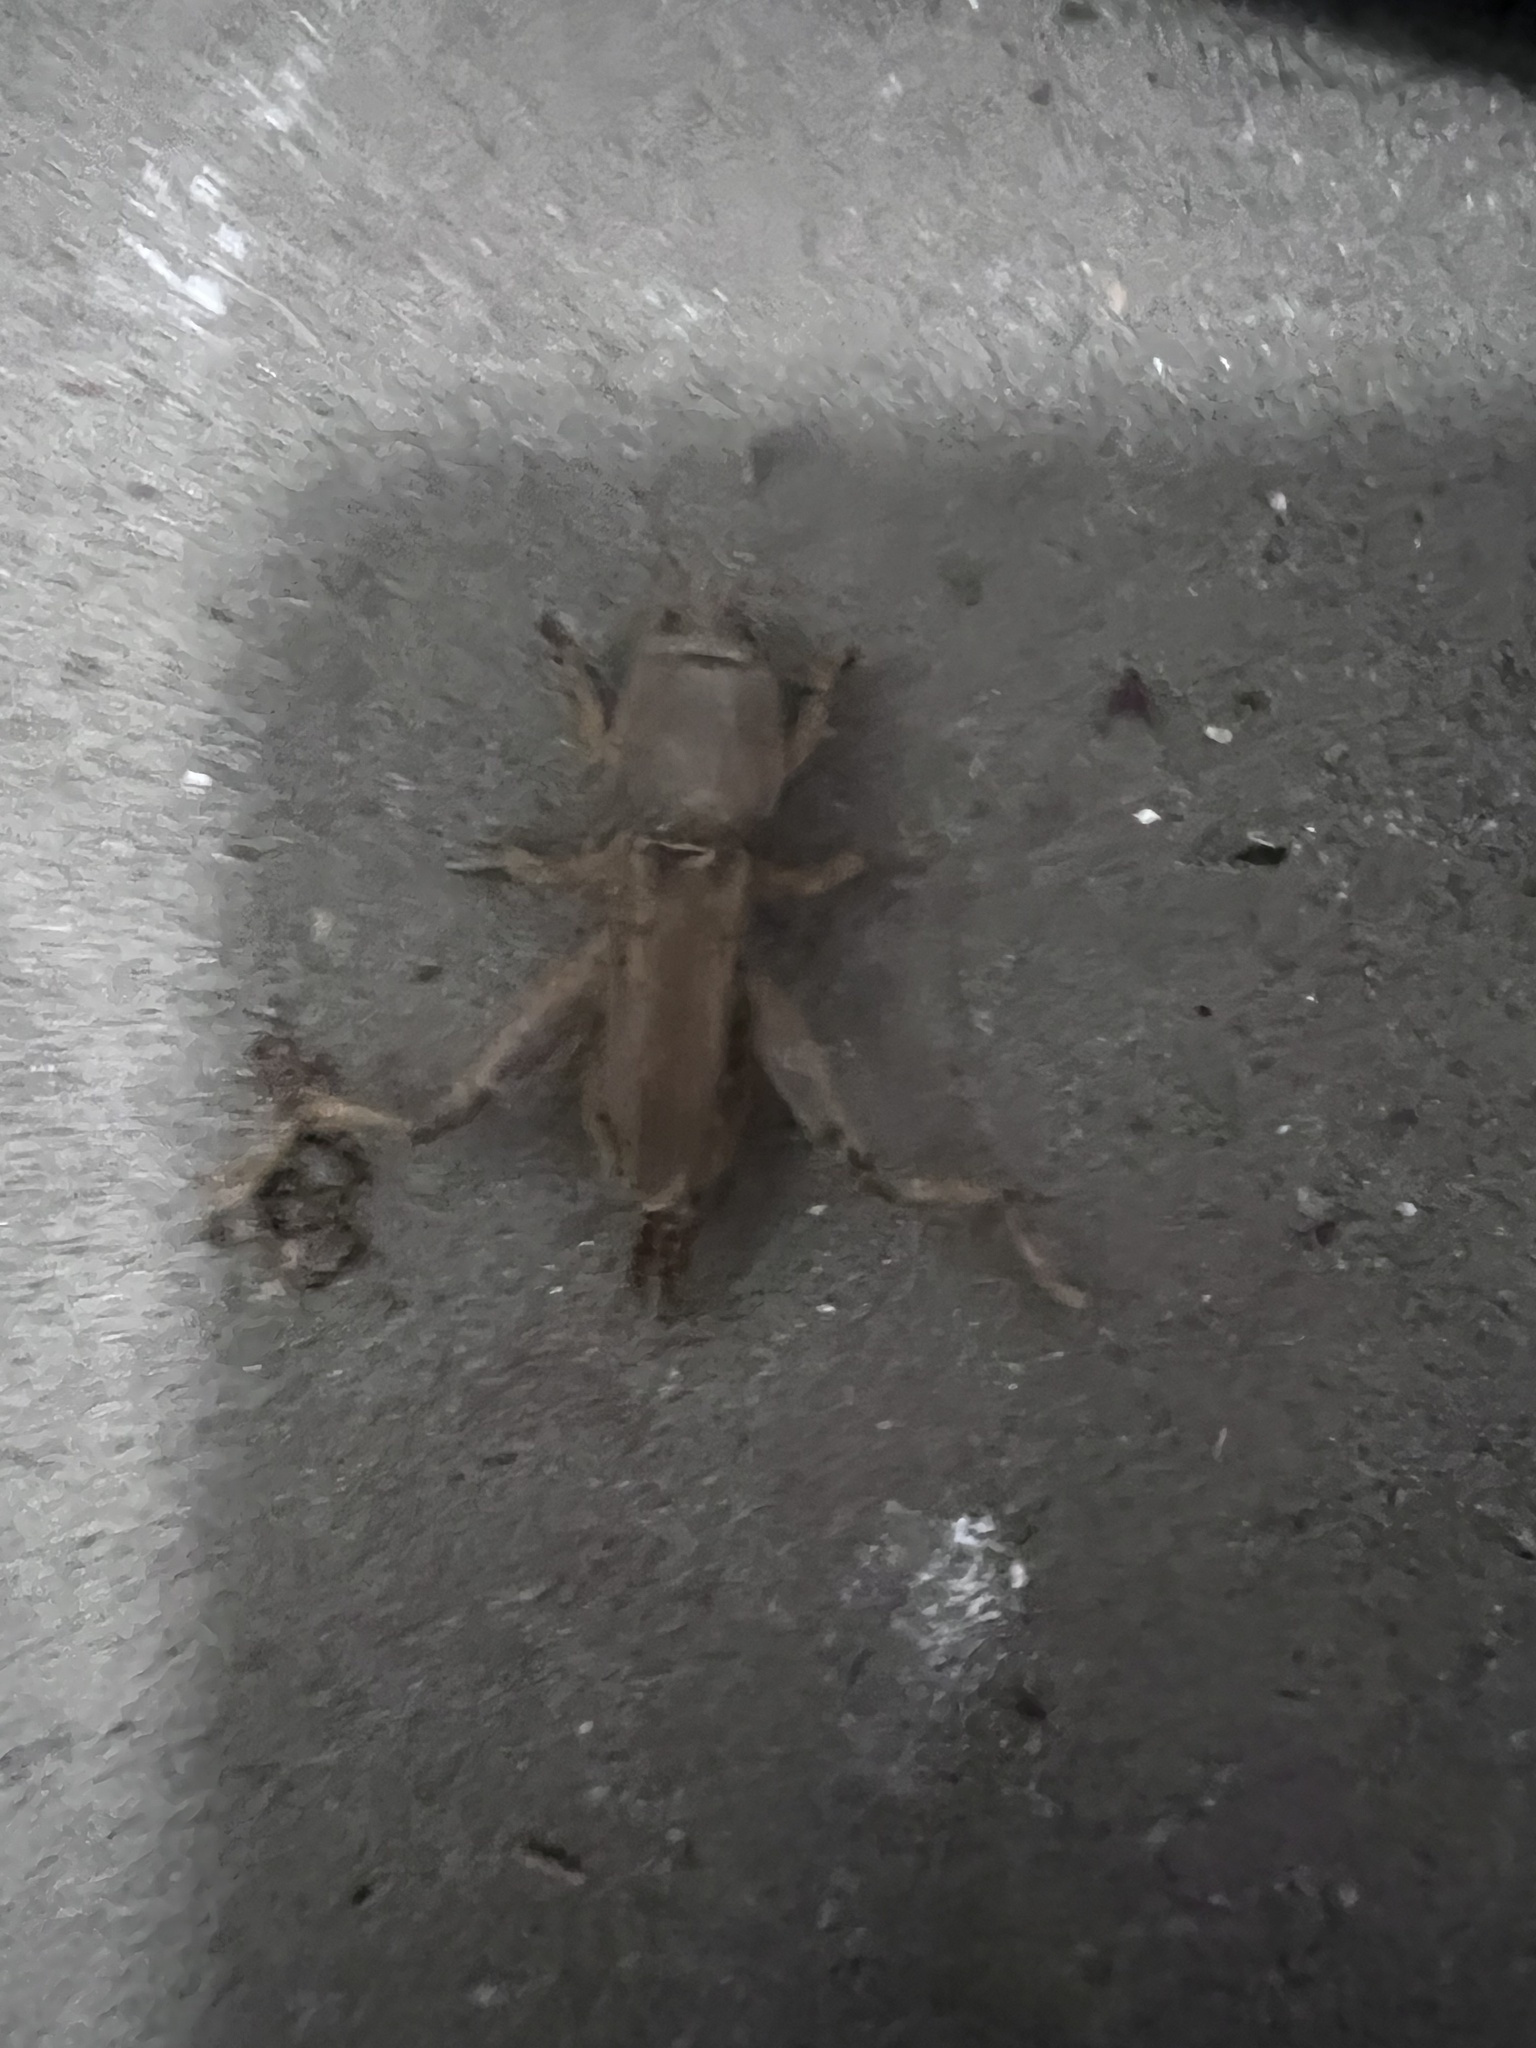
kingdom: Animalia
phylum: Arthropoda
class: Insecta
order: Orthoptera
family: Gryllotalpidae
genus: Neoscapteriscus
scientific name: Neoscapteriscus vicinus
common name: Tawny mole cricket
